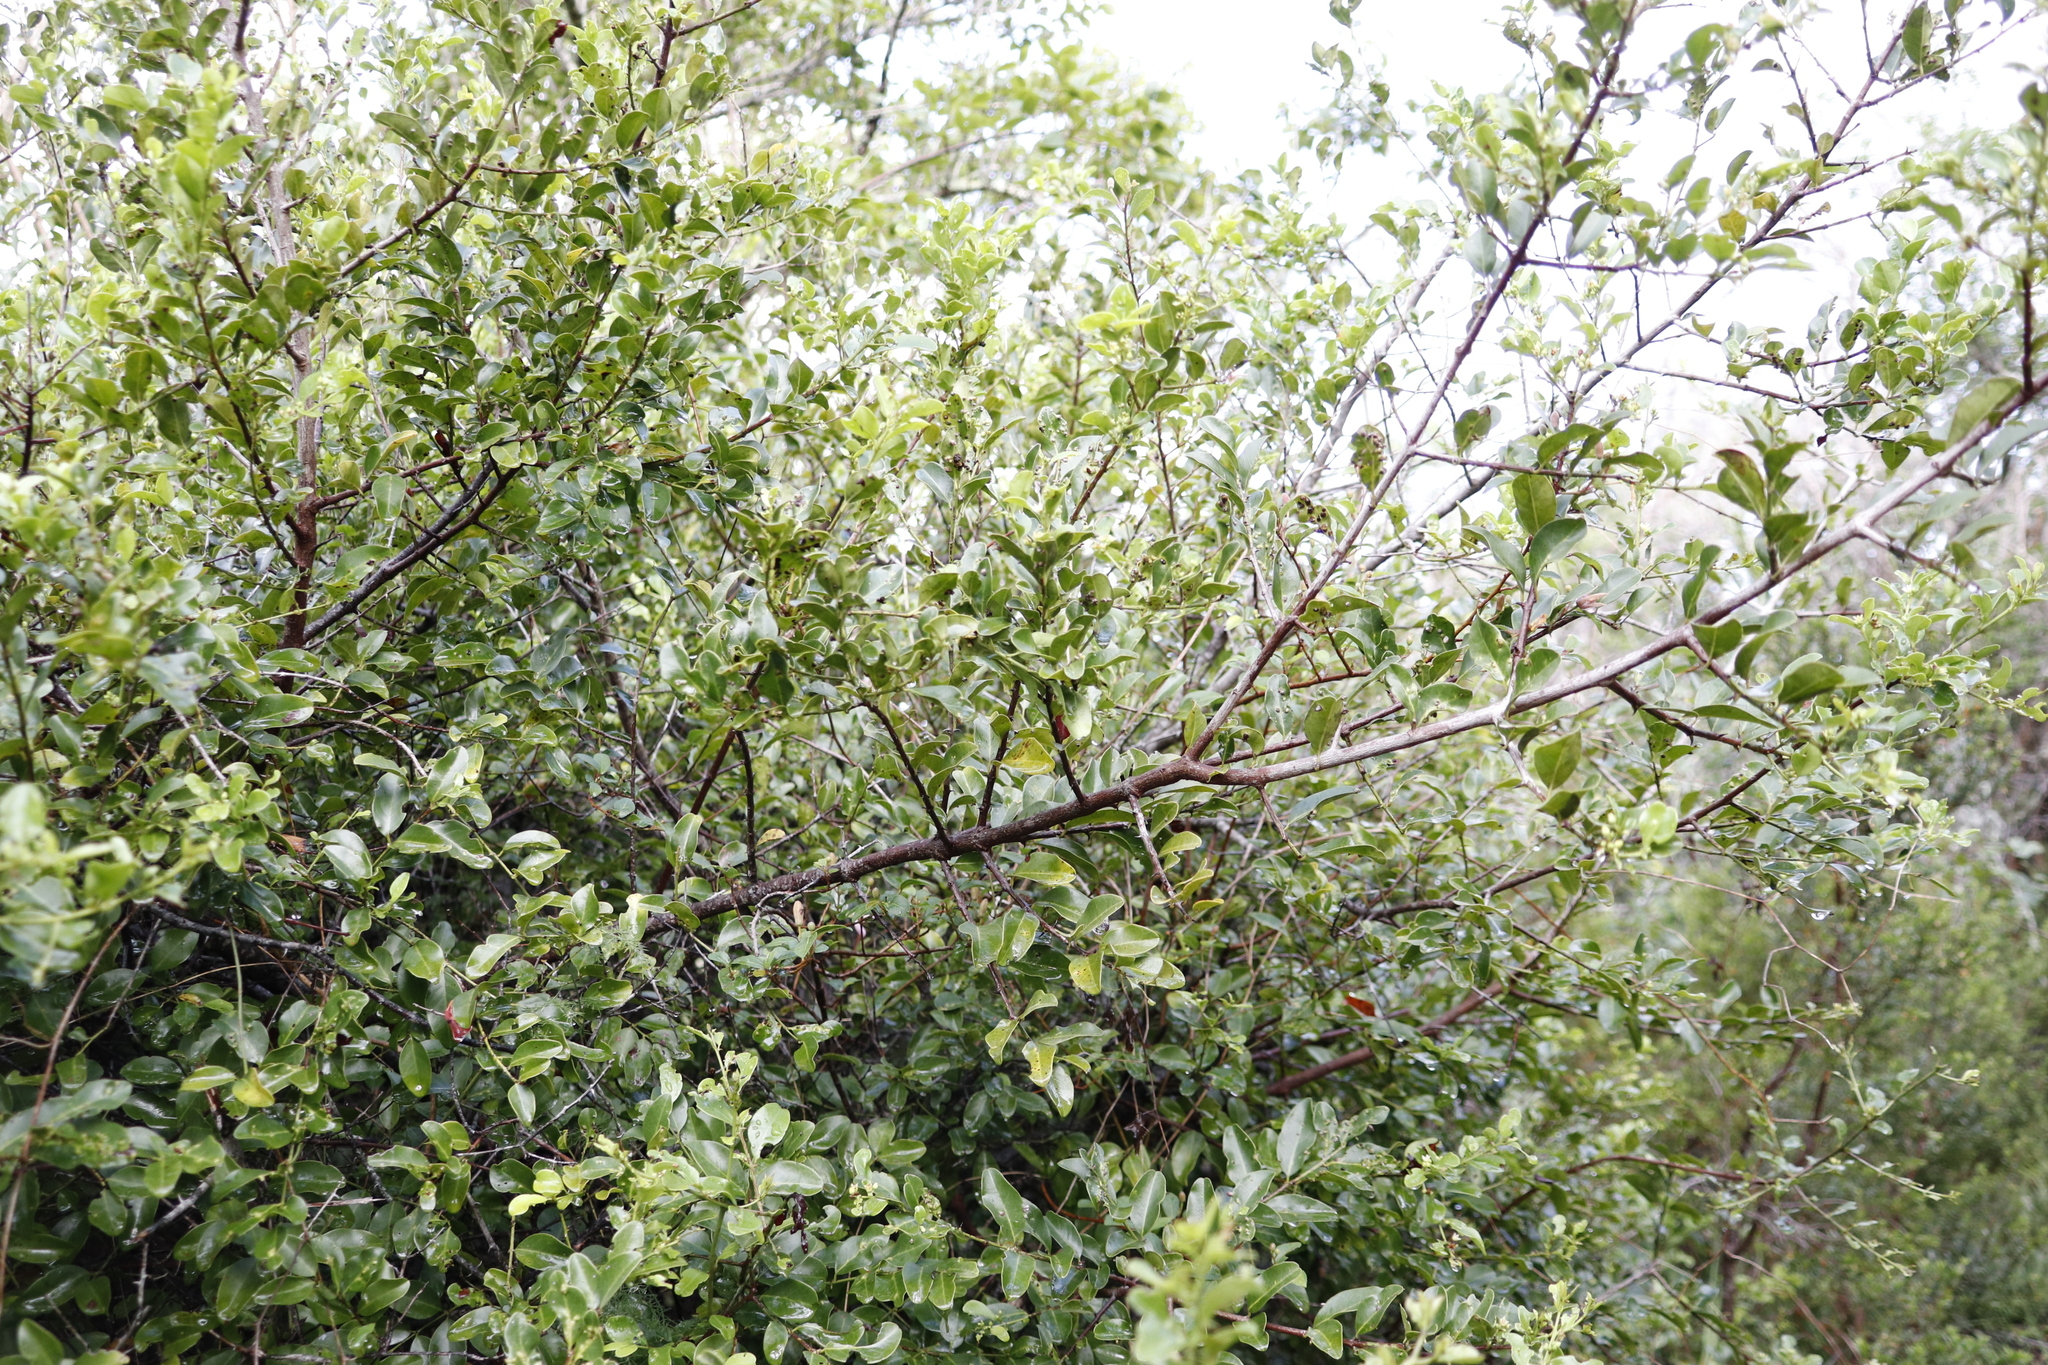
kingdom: Plantae
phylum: Tracheophyta
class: Magnoliopsida
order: Rosales
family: Rhamnaceae
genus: Scutia
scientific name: Scutia myrtina
